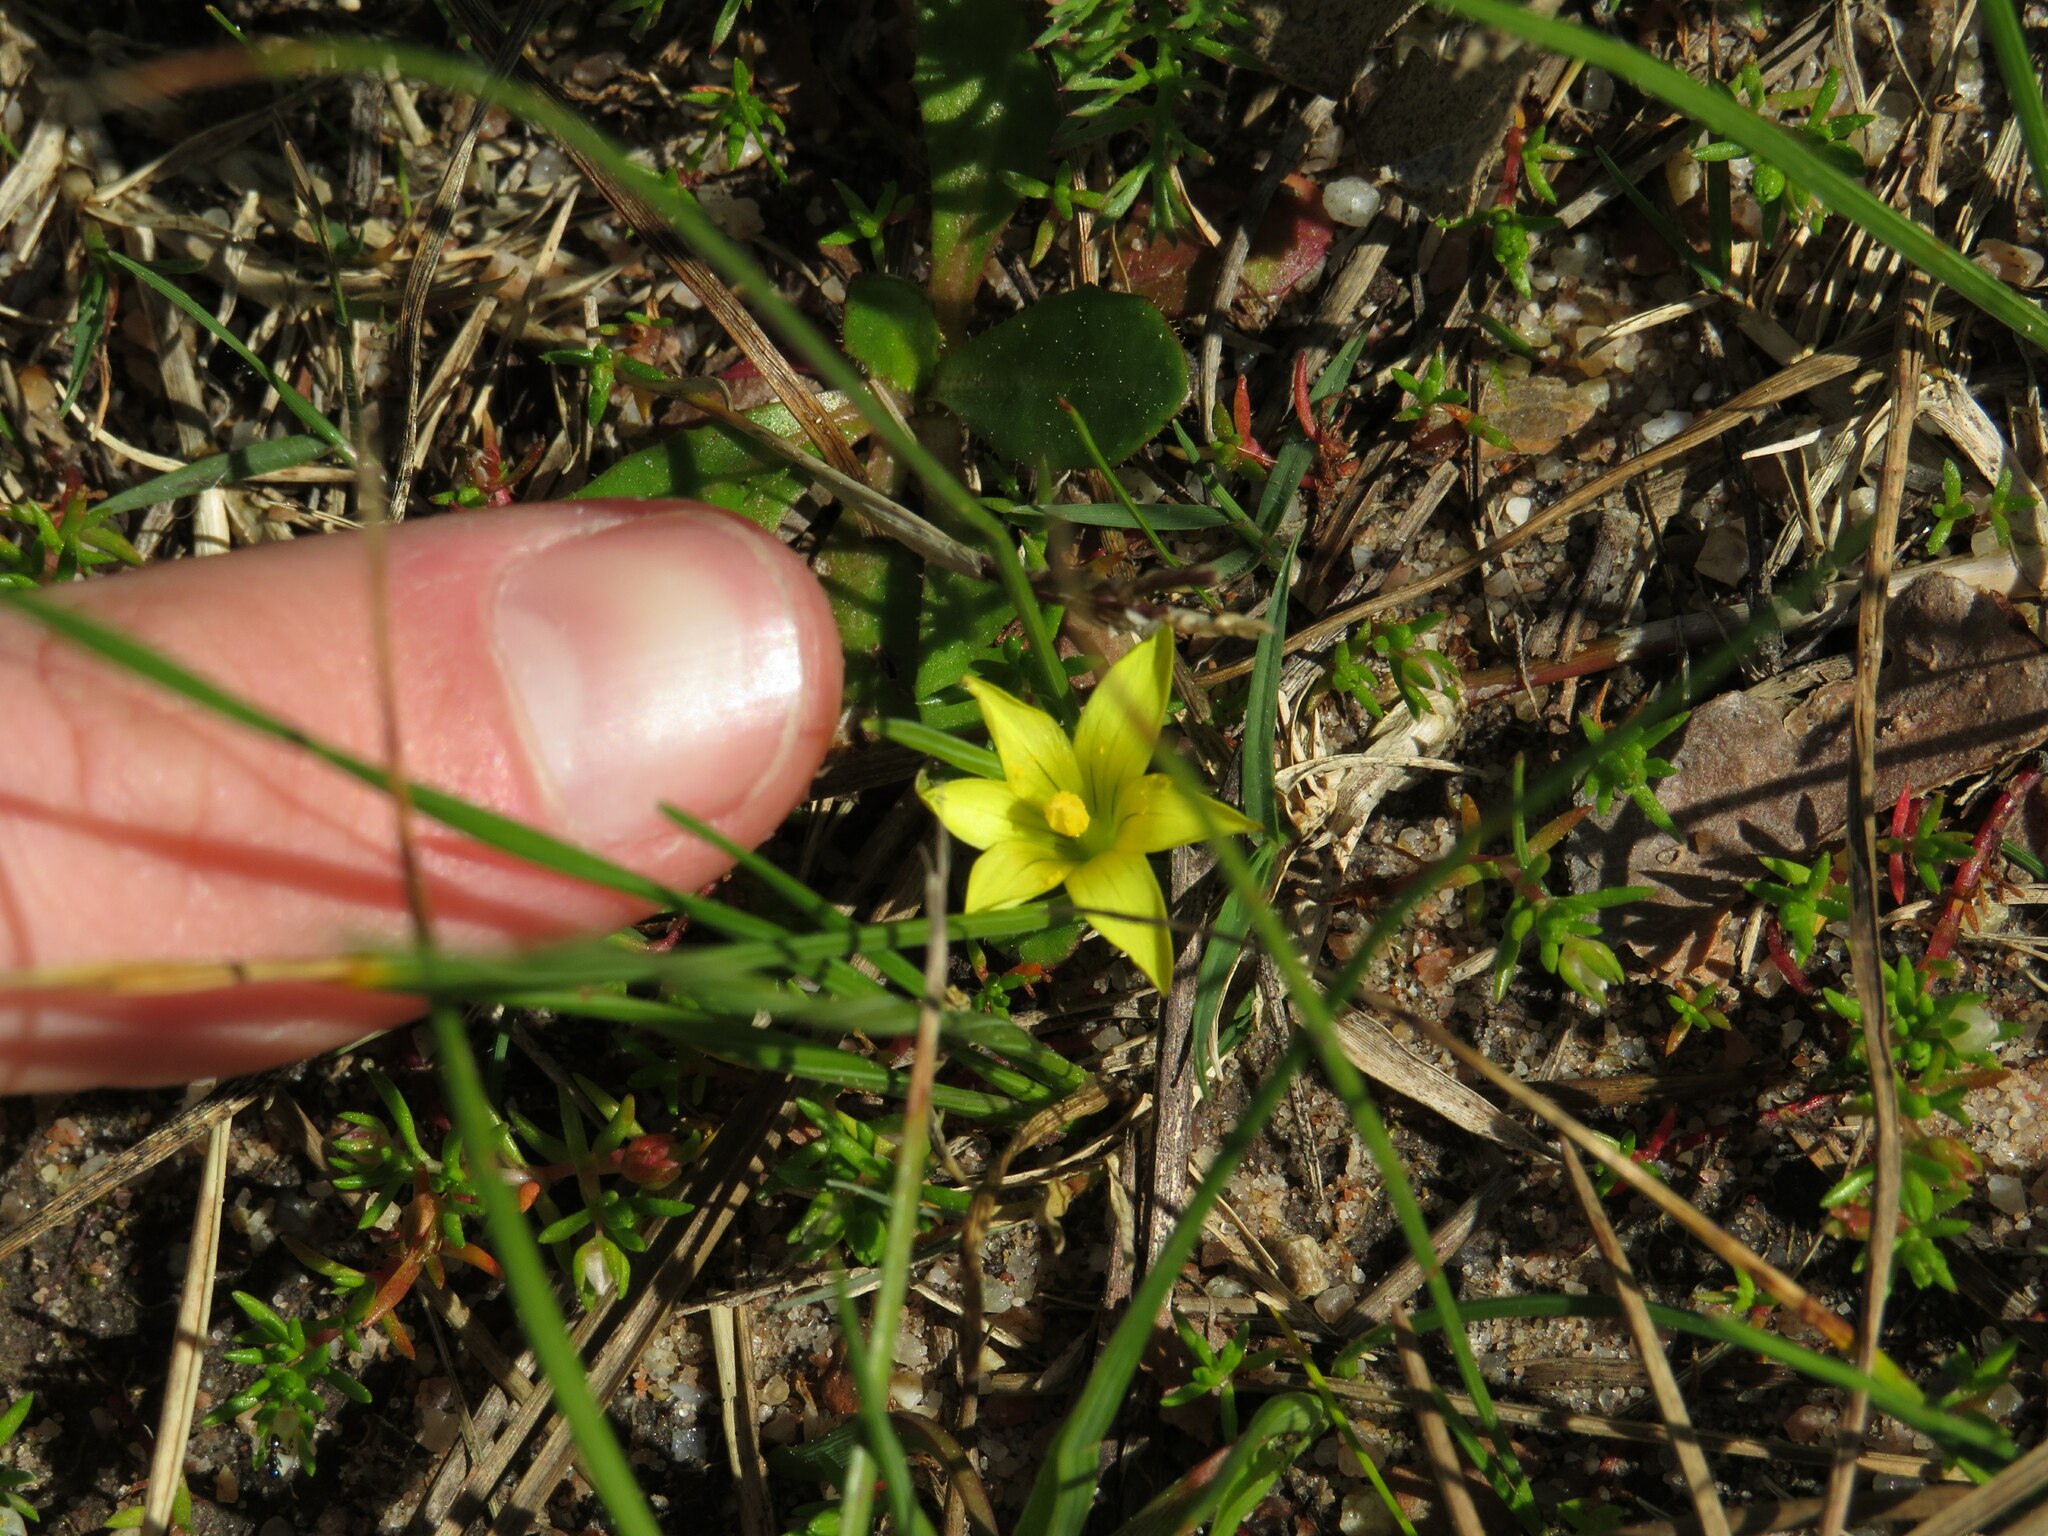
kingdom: Plantae
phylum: Tracheophyta
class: Liliopsida
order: Asparagales
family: Iridaceae
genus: Romulea
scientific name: Romulea flava
